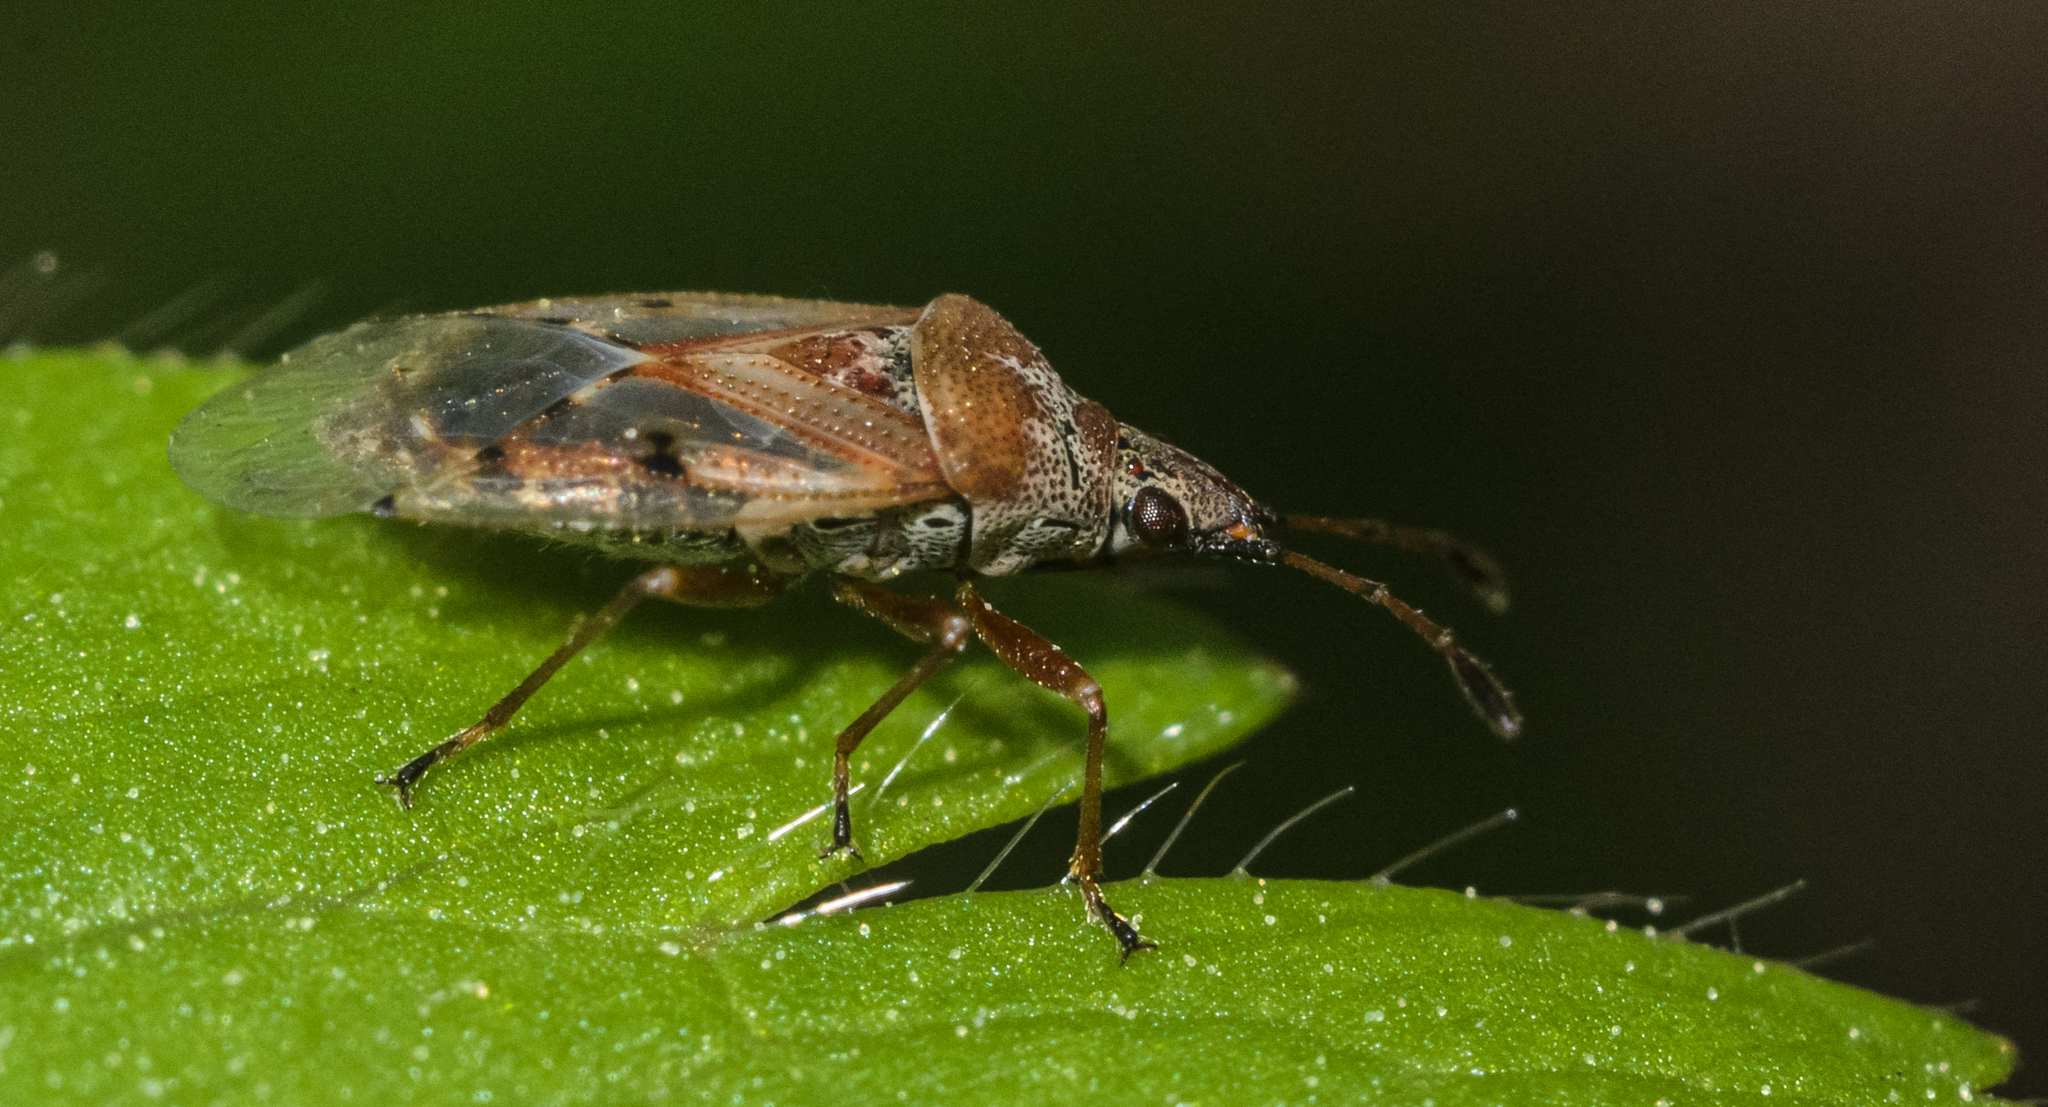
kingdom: Animalia
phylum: Arthropoda
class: Insecta
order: Hemiptera
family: Lygaeidae
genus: Kleidocerys
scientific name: Kleidocerys resedae
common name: Birch catkin bug
